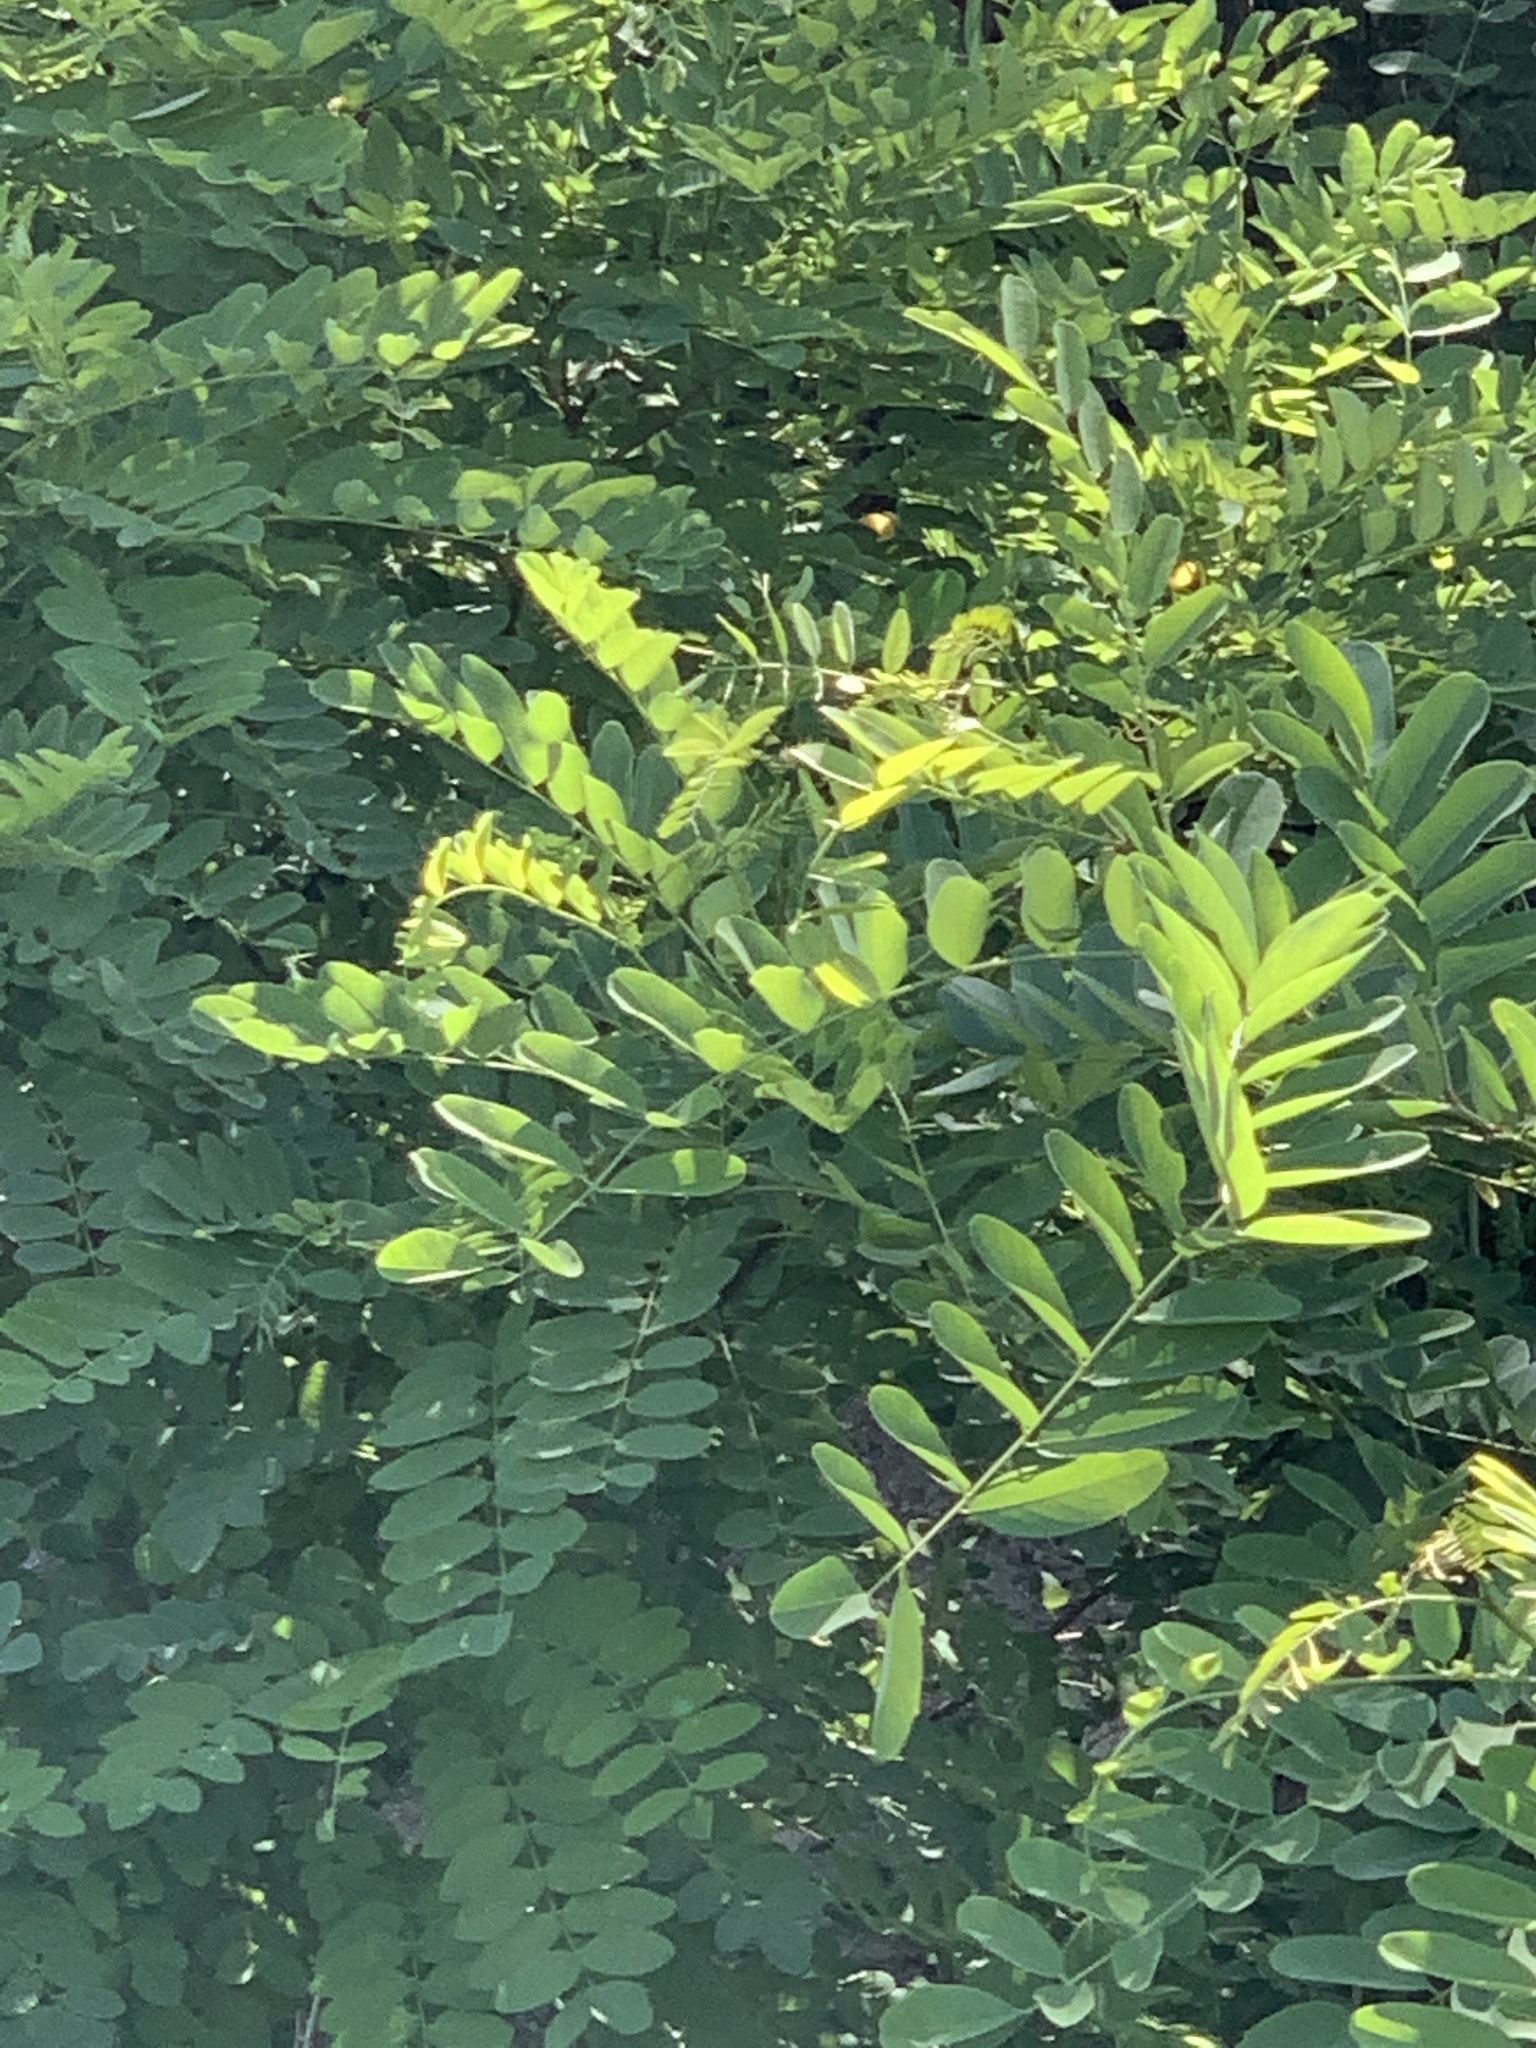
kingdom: Plantae
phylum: Tracheophyta
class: Magnoliopsida
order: Fabales
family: Fabaceae
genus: Robinia
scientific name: Robinia pseudoacacia
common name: Black locust
